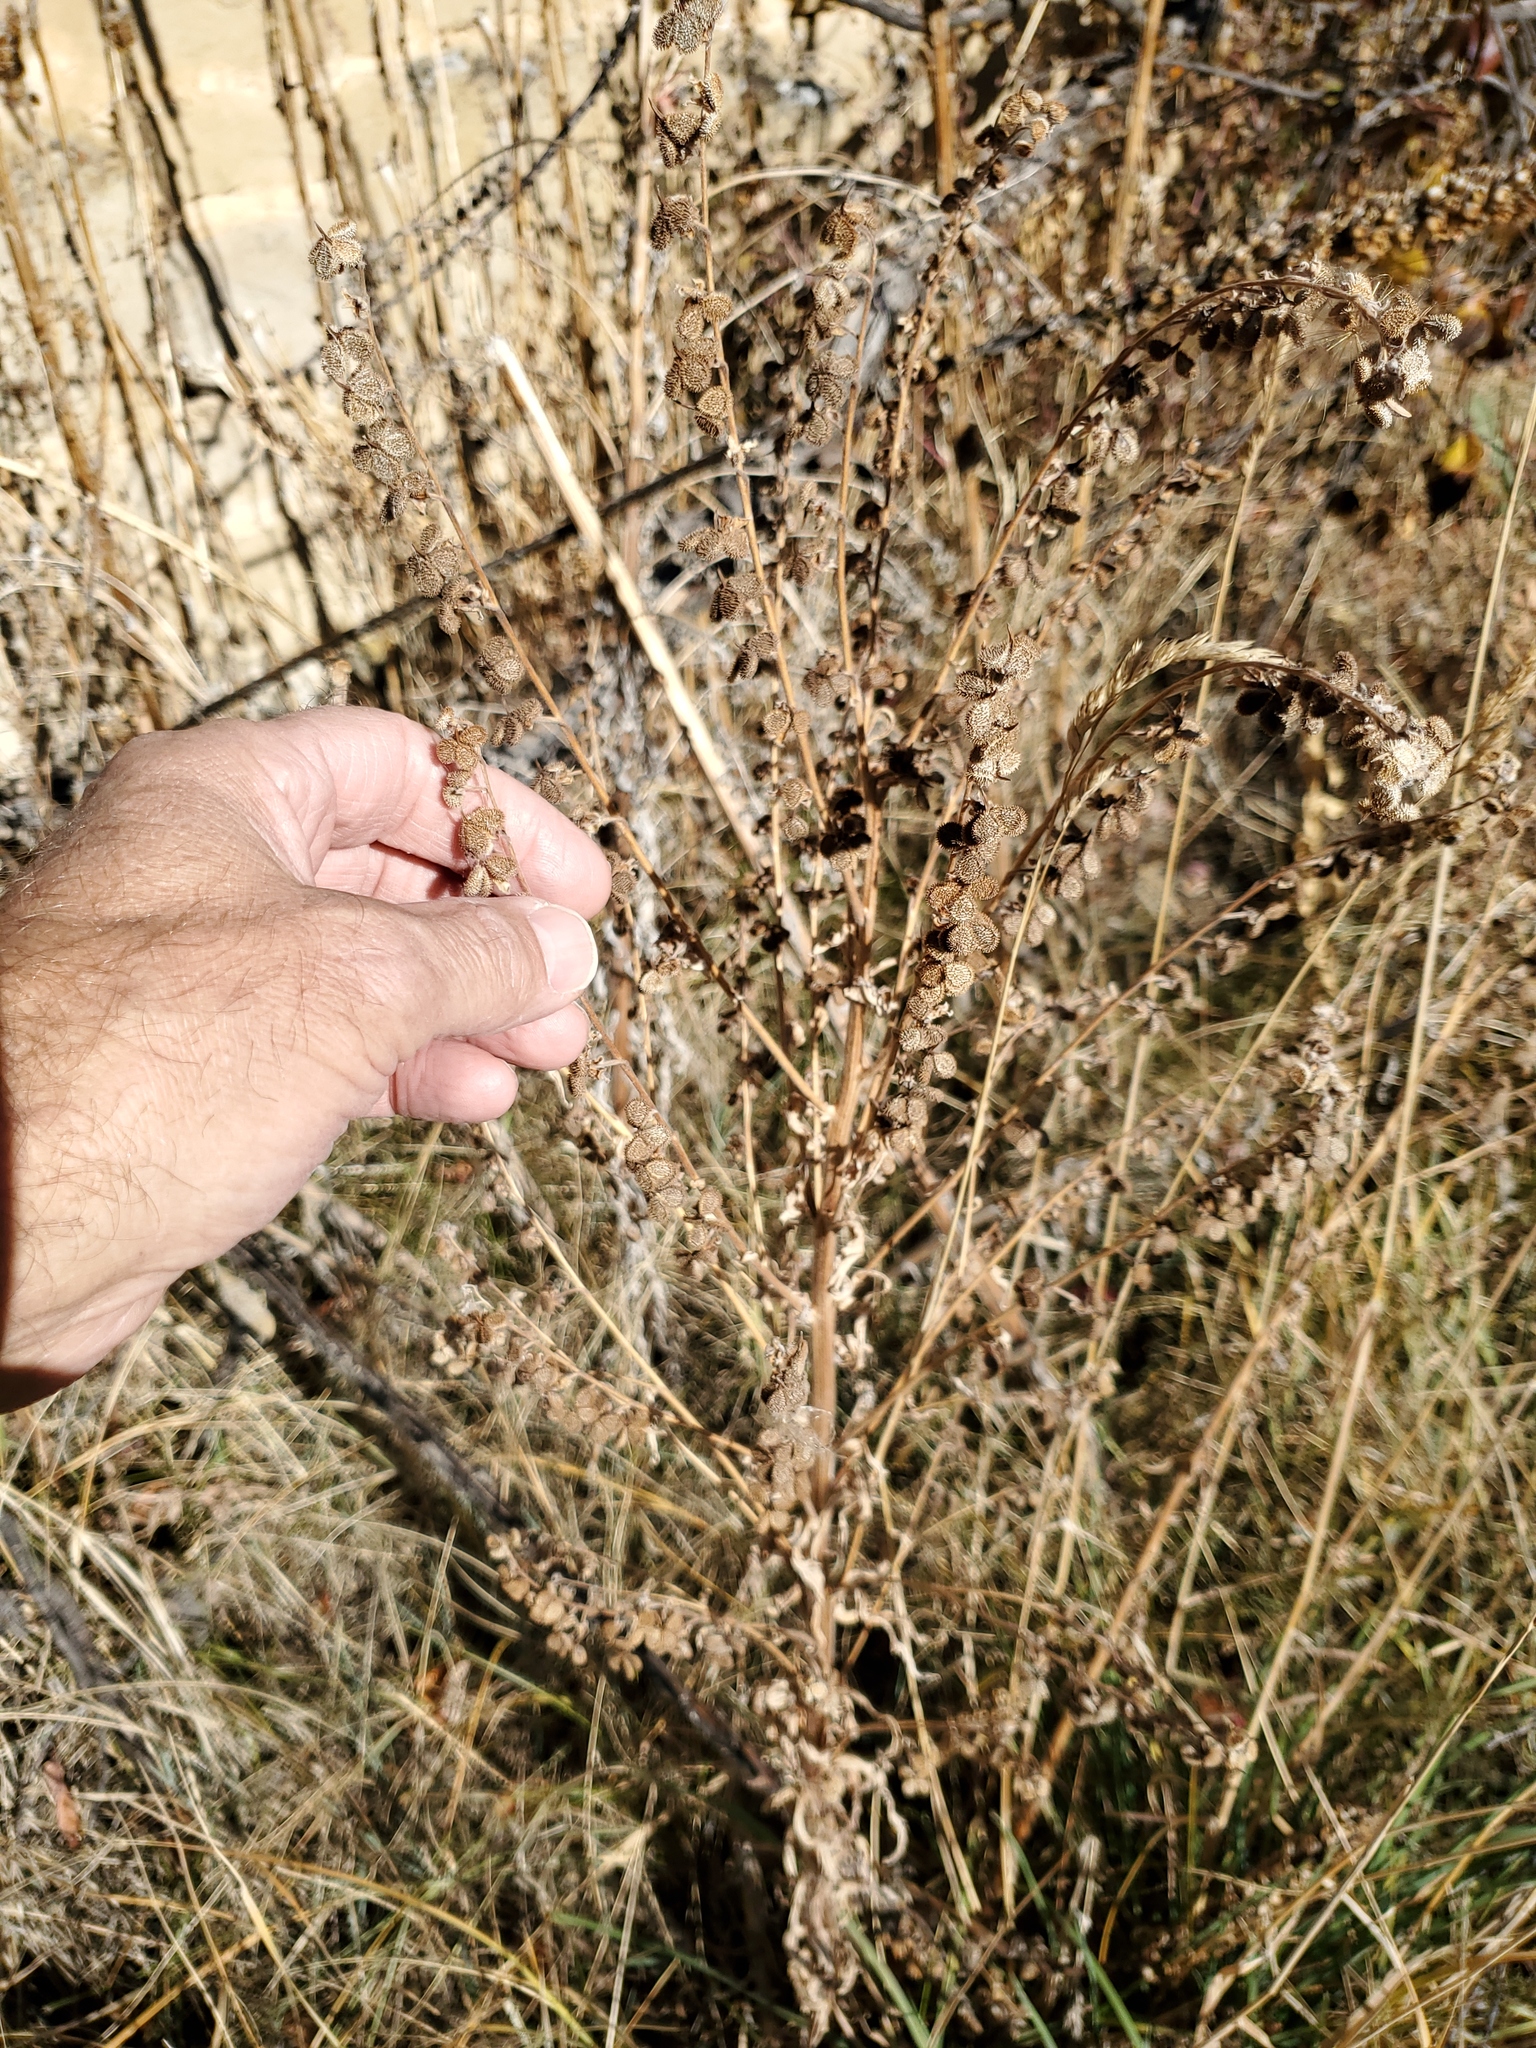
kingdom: Plantae
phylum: Tracheophyta
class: Magnoliopsida
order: Boraginales
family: Boraginaceae
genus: Cynoglossum
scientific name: Cynoglossum officinale
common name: Hound's-tongue
